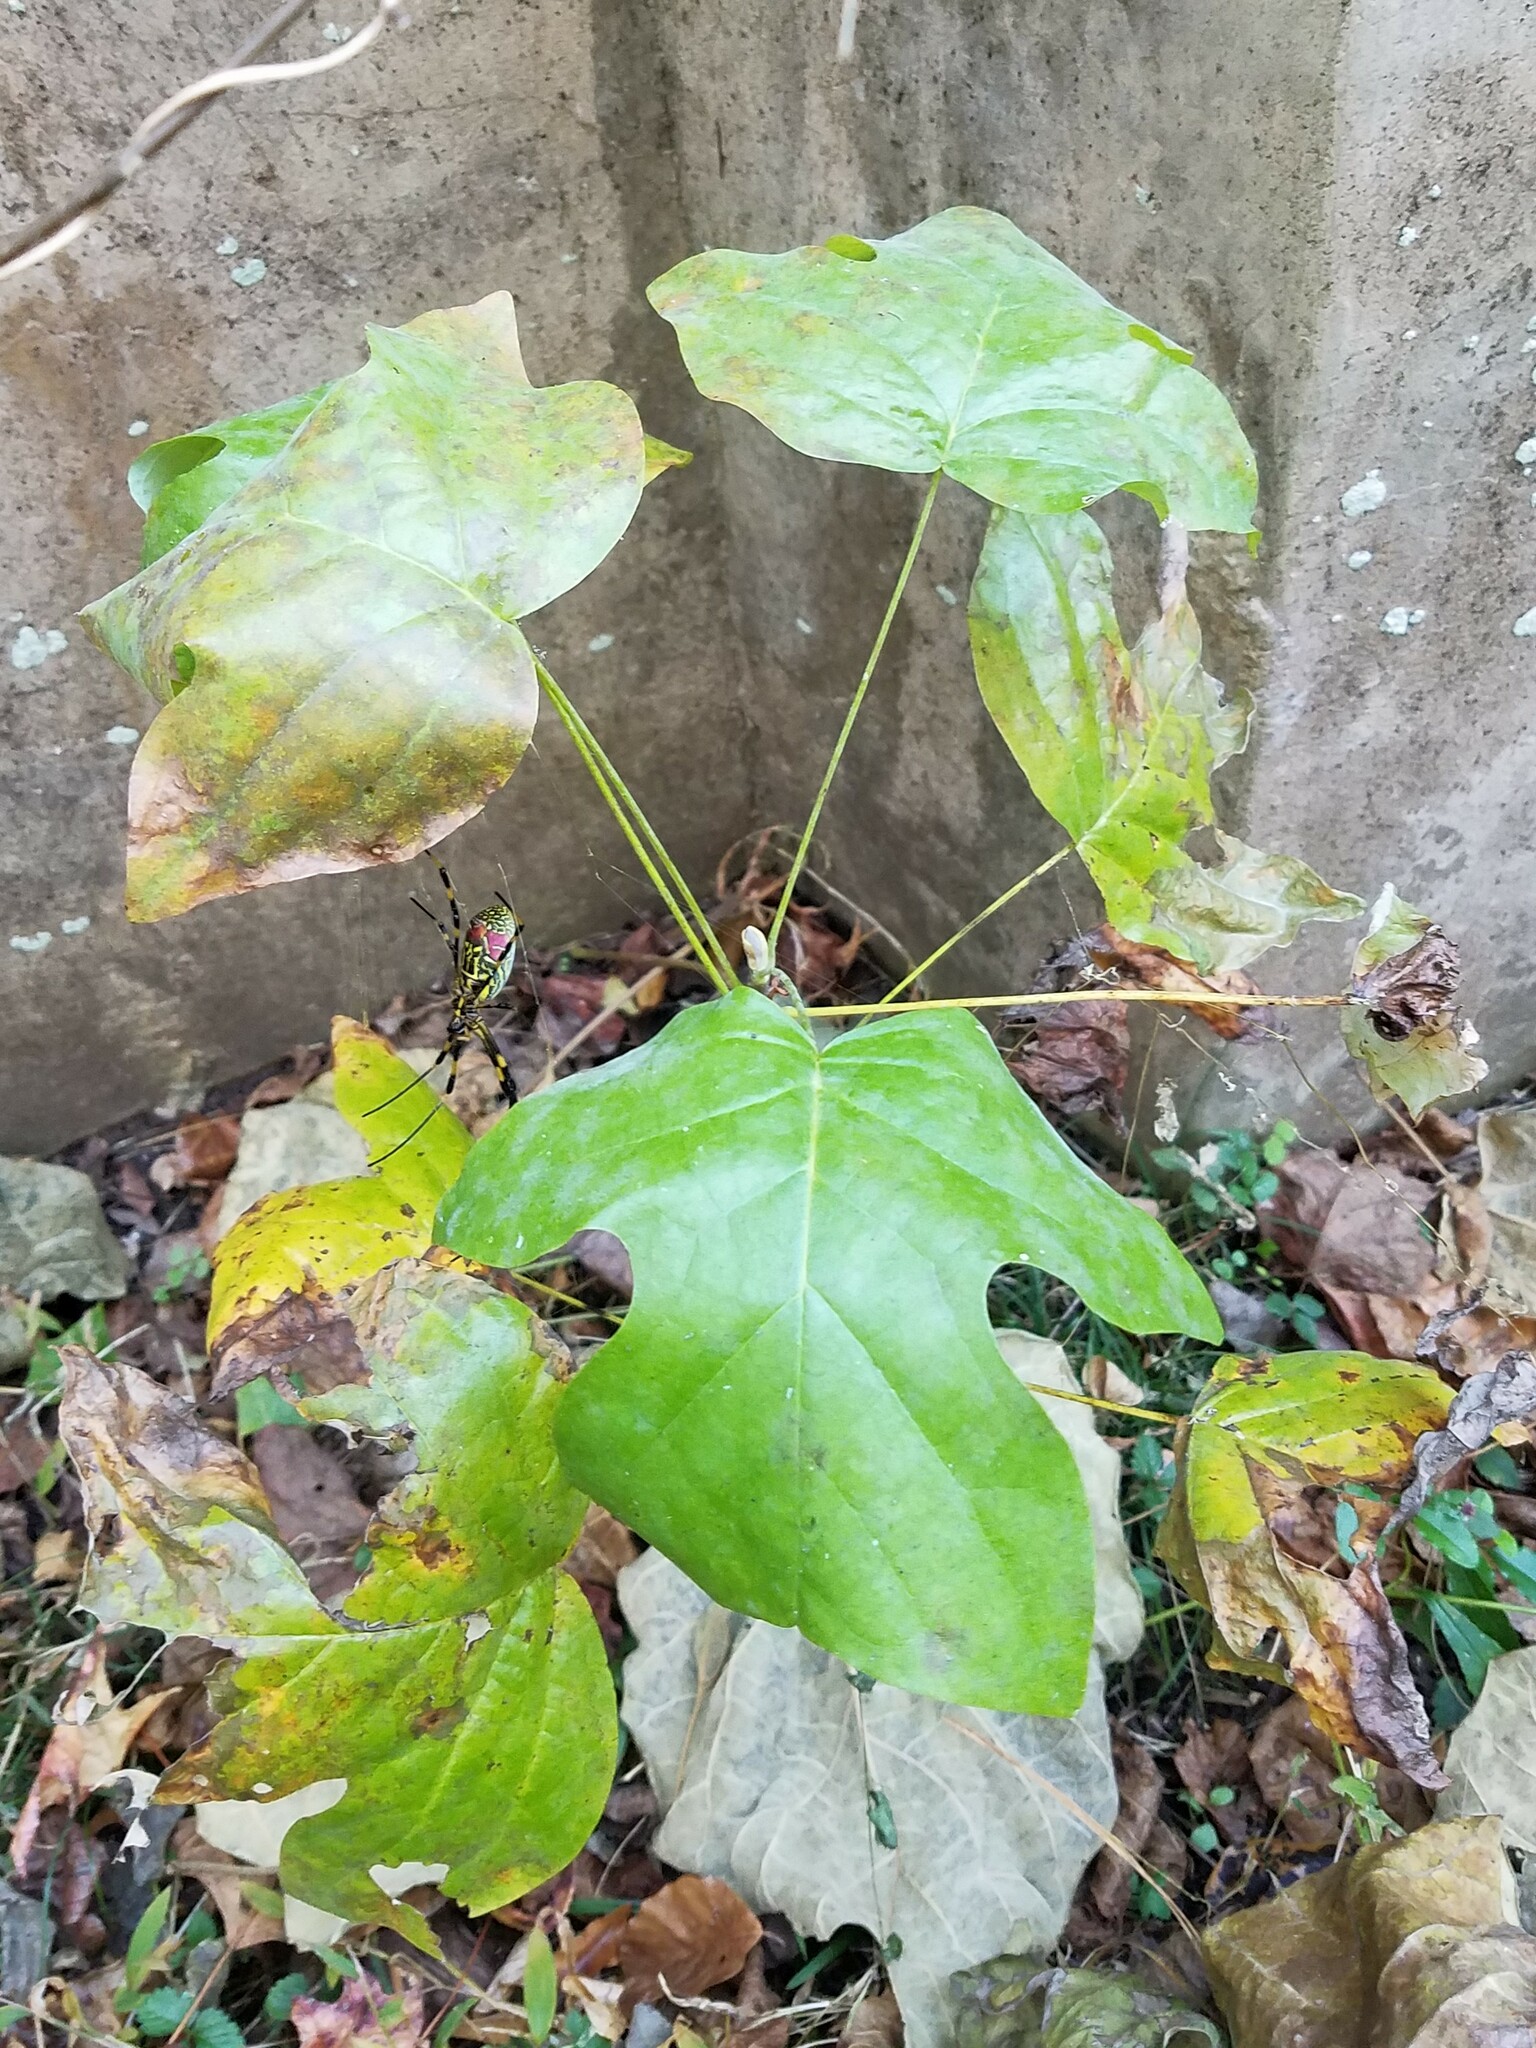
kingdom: Plantae
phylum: Tracheophyta
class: Magnoliopsida
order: Magnoliales
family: Magnoliaceae
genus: Liriodendron
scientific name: Liriodendron tulipifera
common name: Tulip tree
